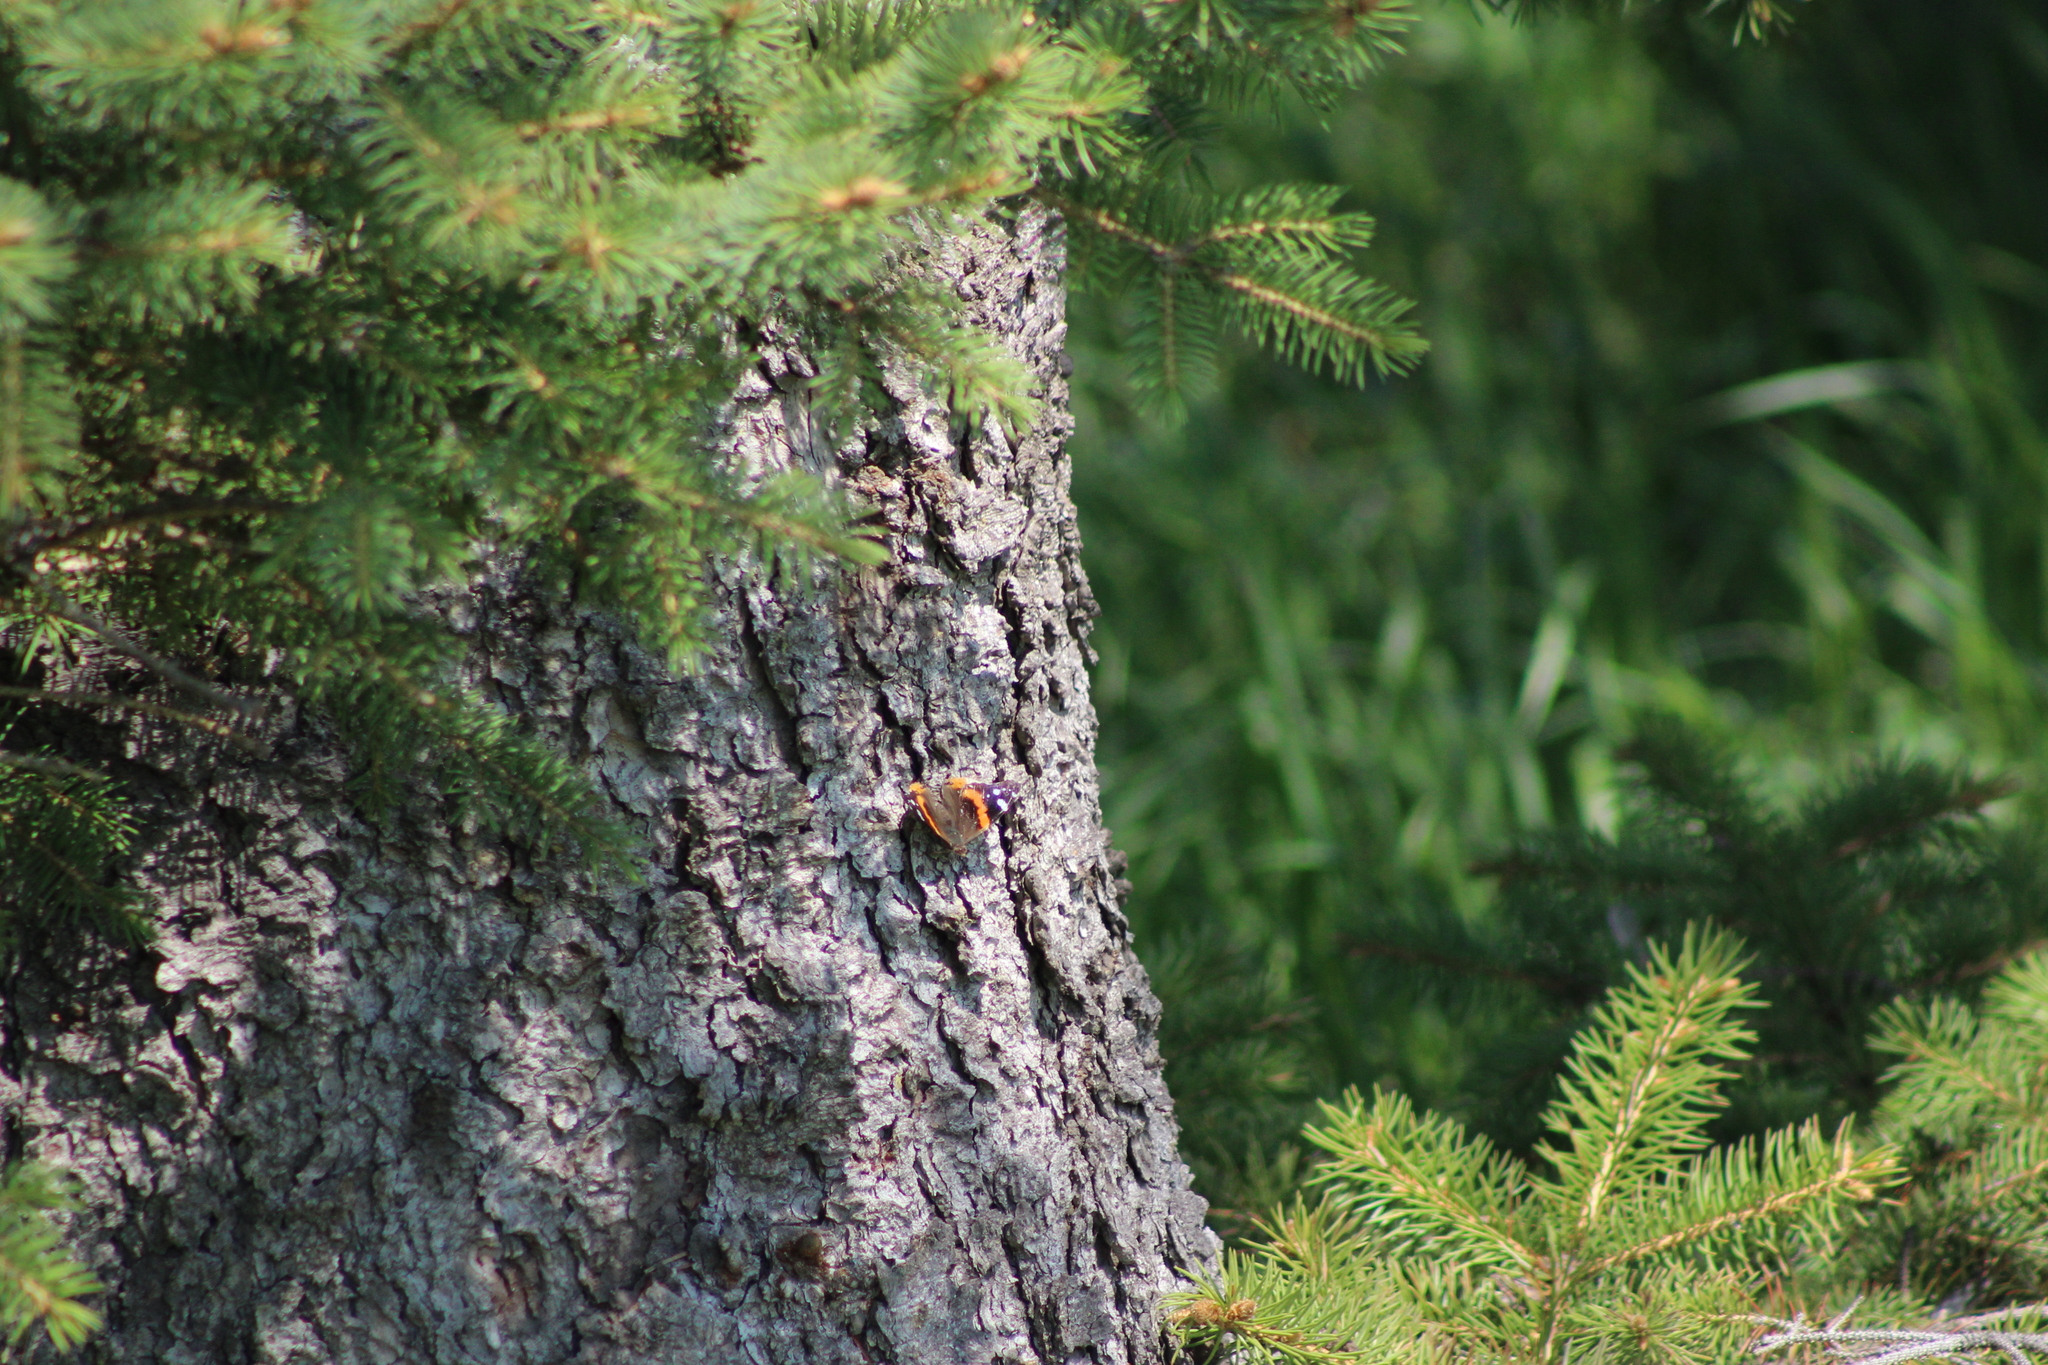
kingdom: Animalia
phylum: Arthropoda
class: Insecta
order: Lepidoptera
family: Nymphalidae
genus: Vanessa
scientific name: Vanessa atalanta
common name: Red admiral
